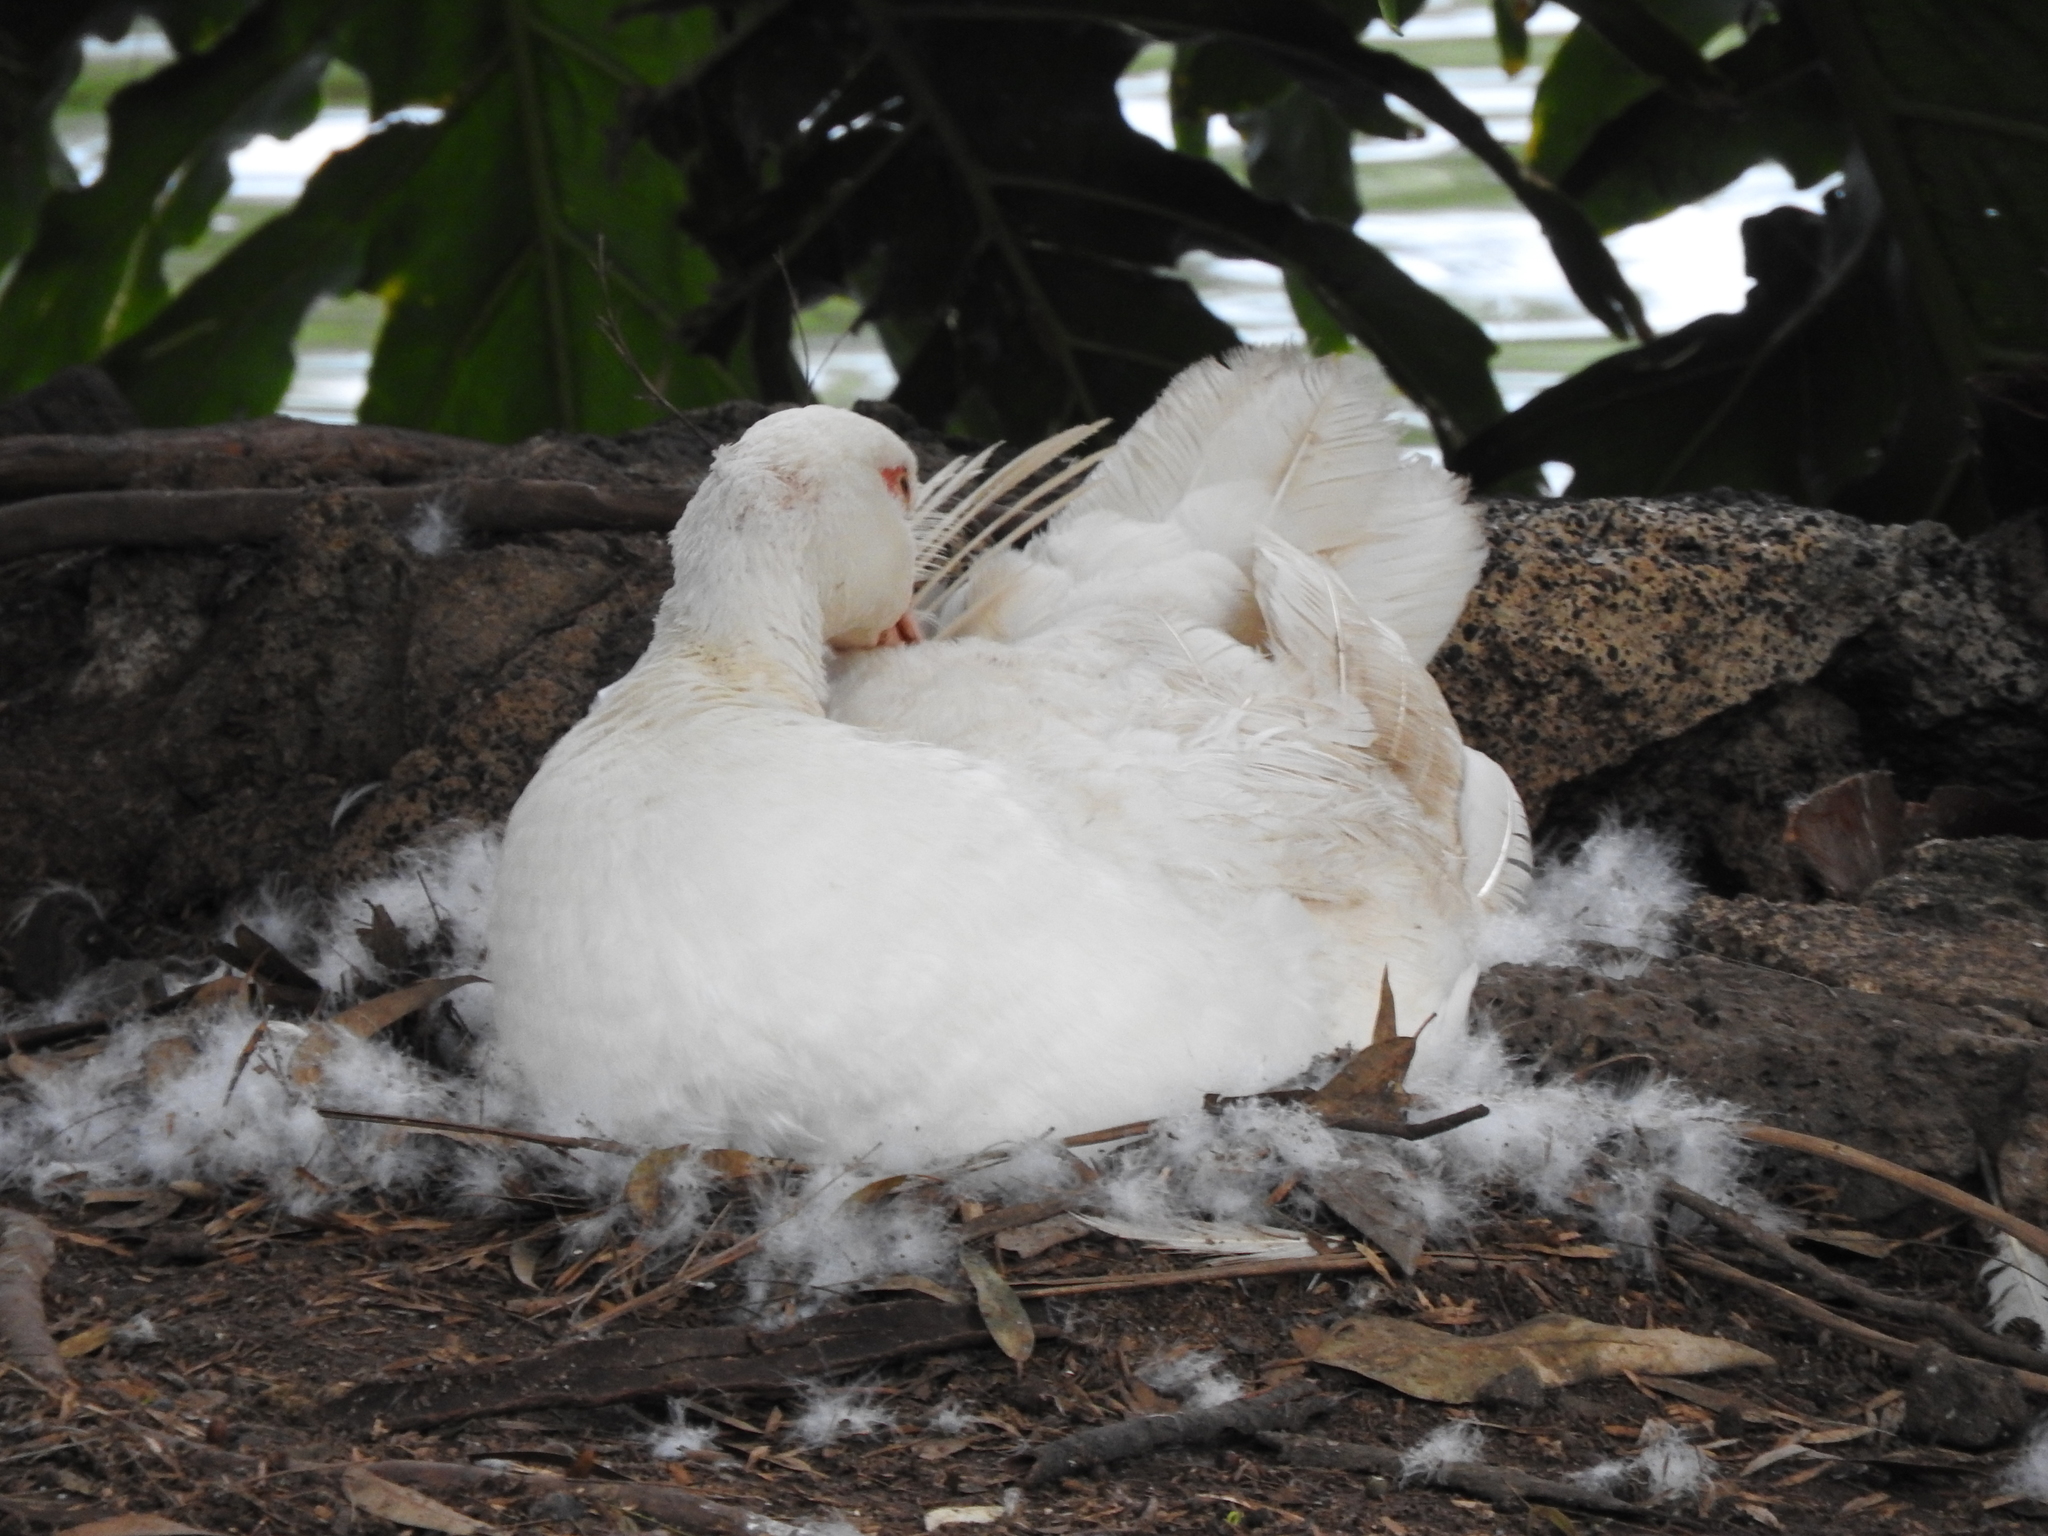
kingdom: Animalia
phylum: Chordata
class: Aves
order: Anseriformes
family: Anatidae
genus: Cairina
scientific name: Cairina moschata
